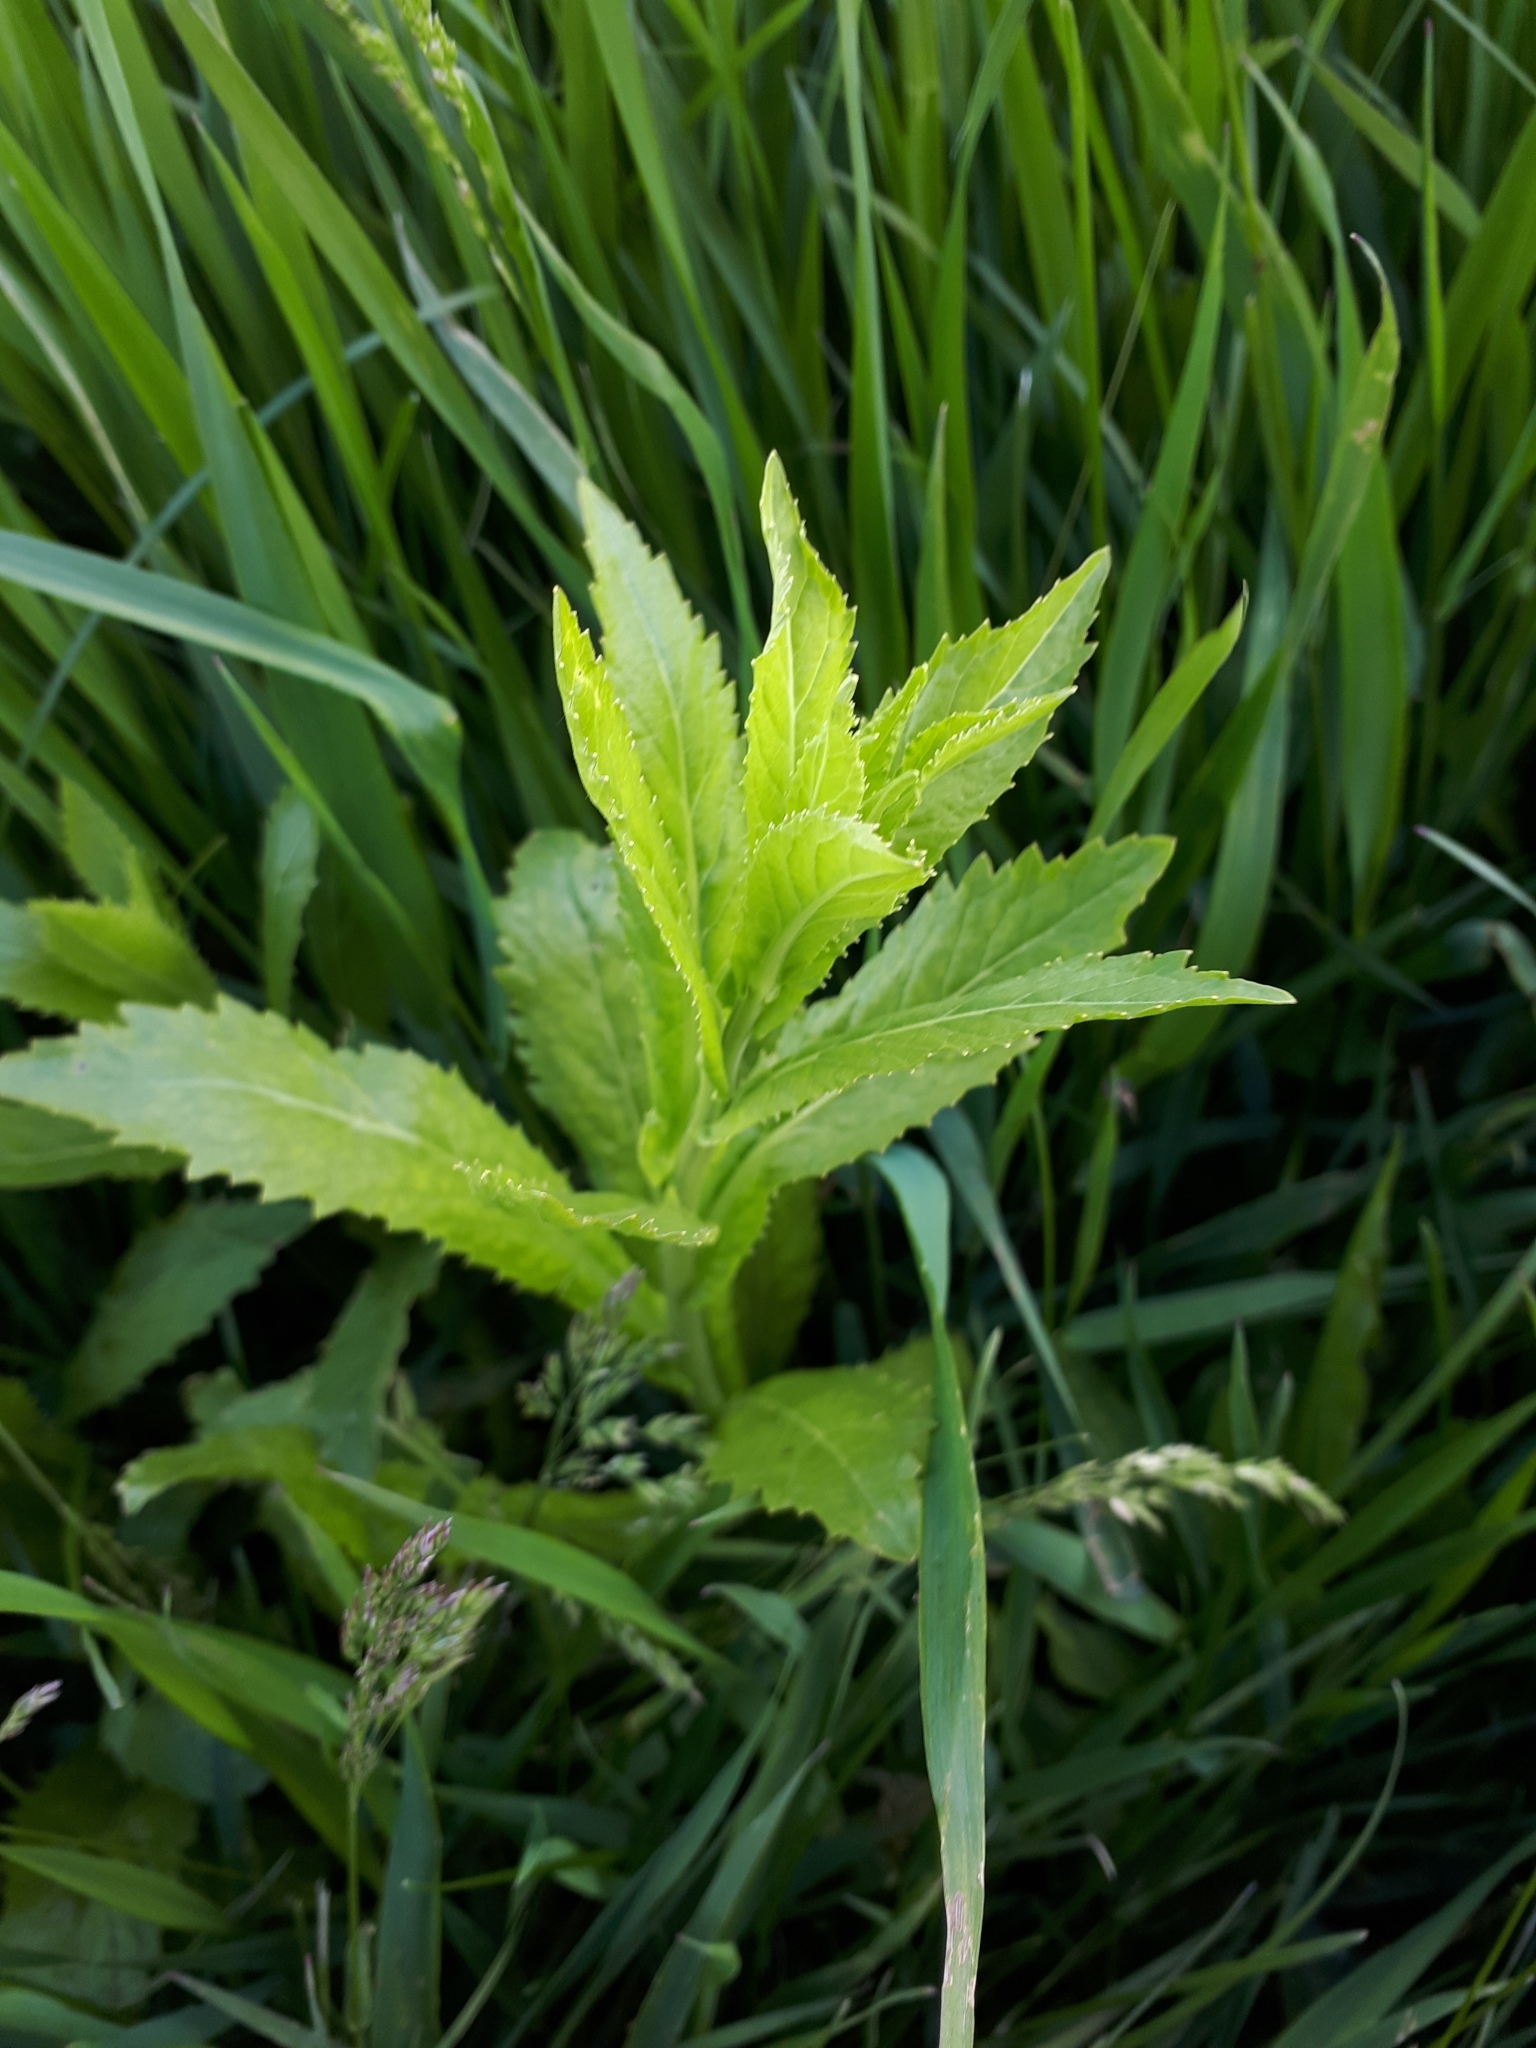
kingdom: Plantae
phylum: Tracheophyta
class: Magnoliopsida
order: Brassicales
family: Brassicaceae
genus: Rorippa
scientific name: Rorippa austriaca
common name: Austrian yellow-cress
